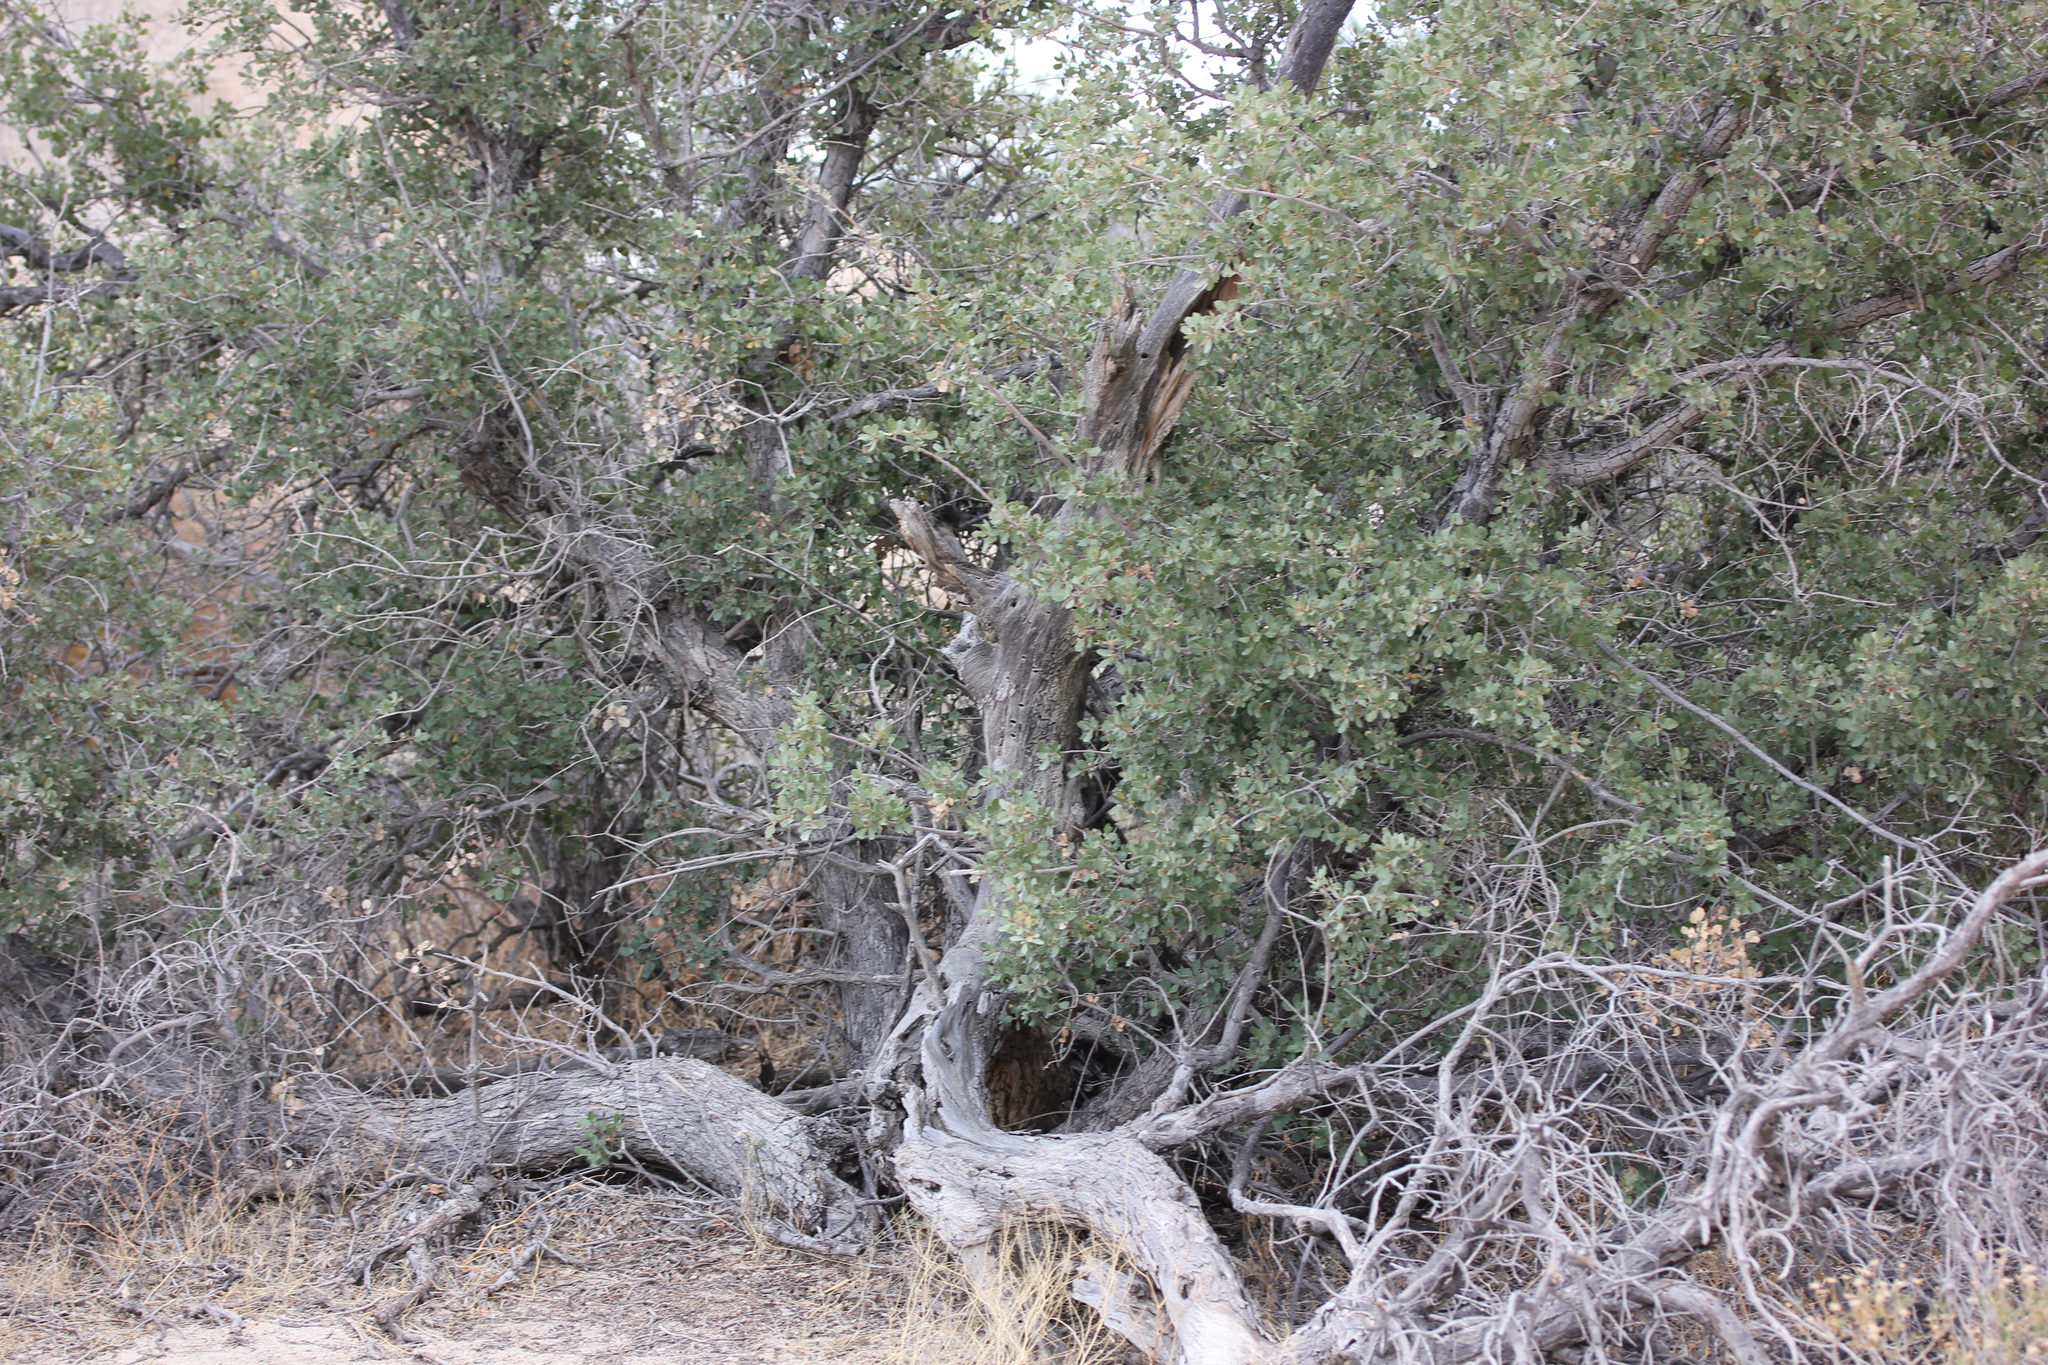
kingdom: Plantae
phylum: Tracheophyta
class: Magnoliopsida
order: Fagales
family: Fagaceae
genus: Quercus
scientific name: Quercus cornelius-mulleri
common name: Muller oak
